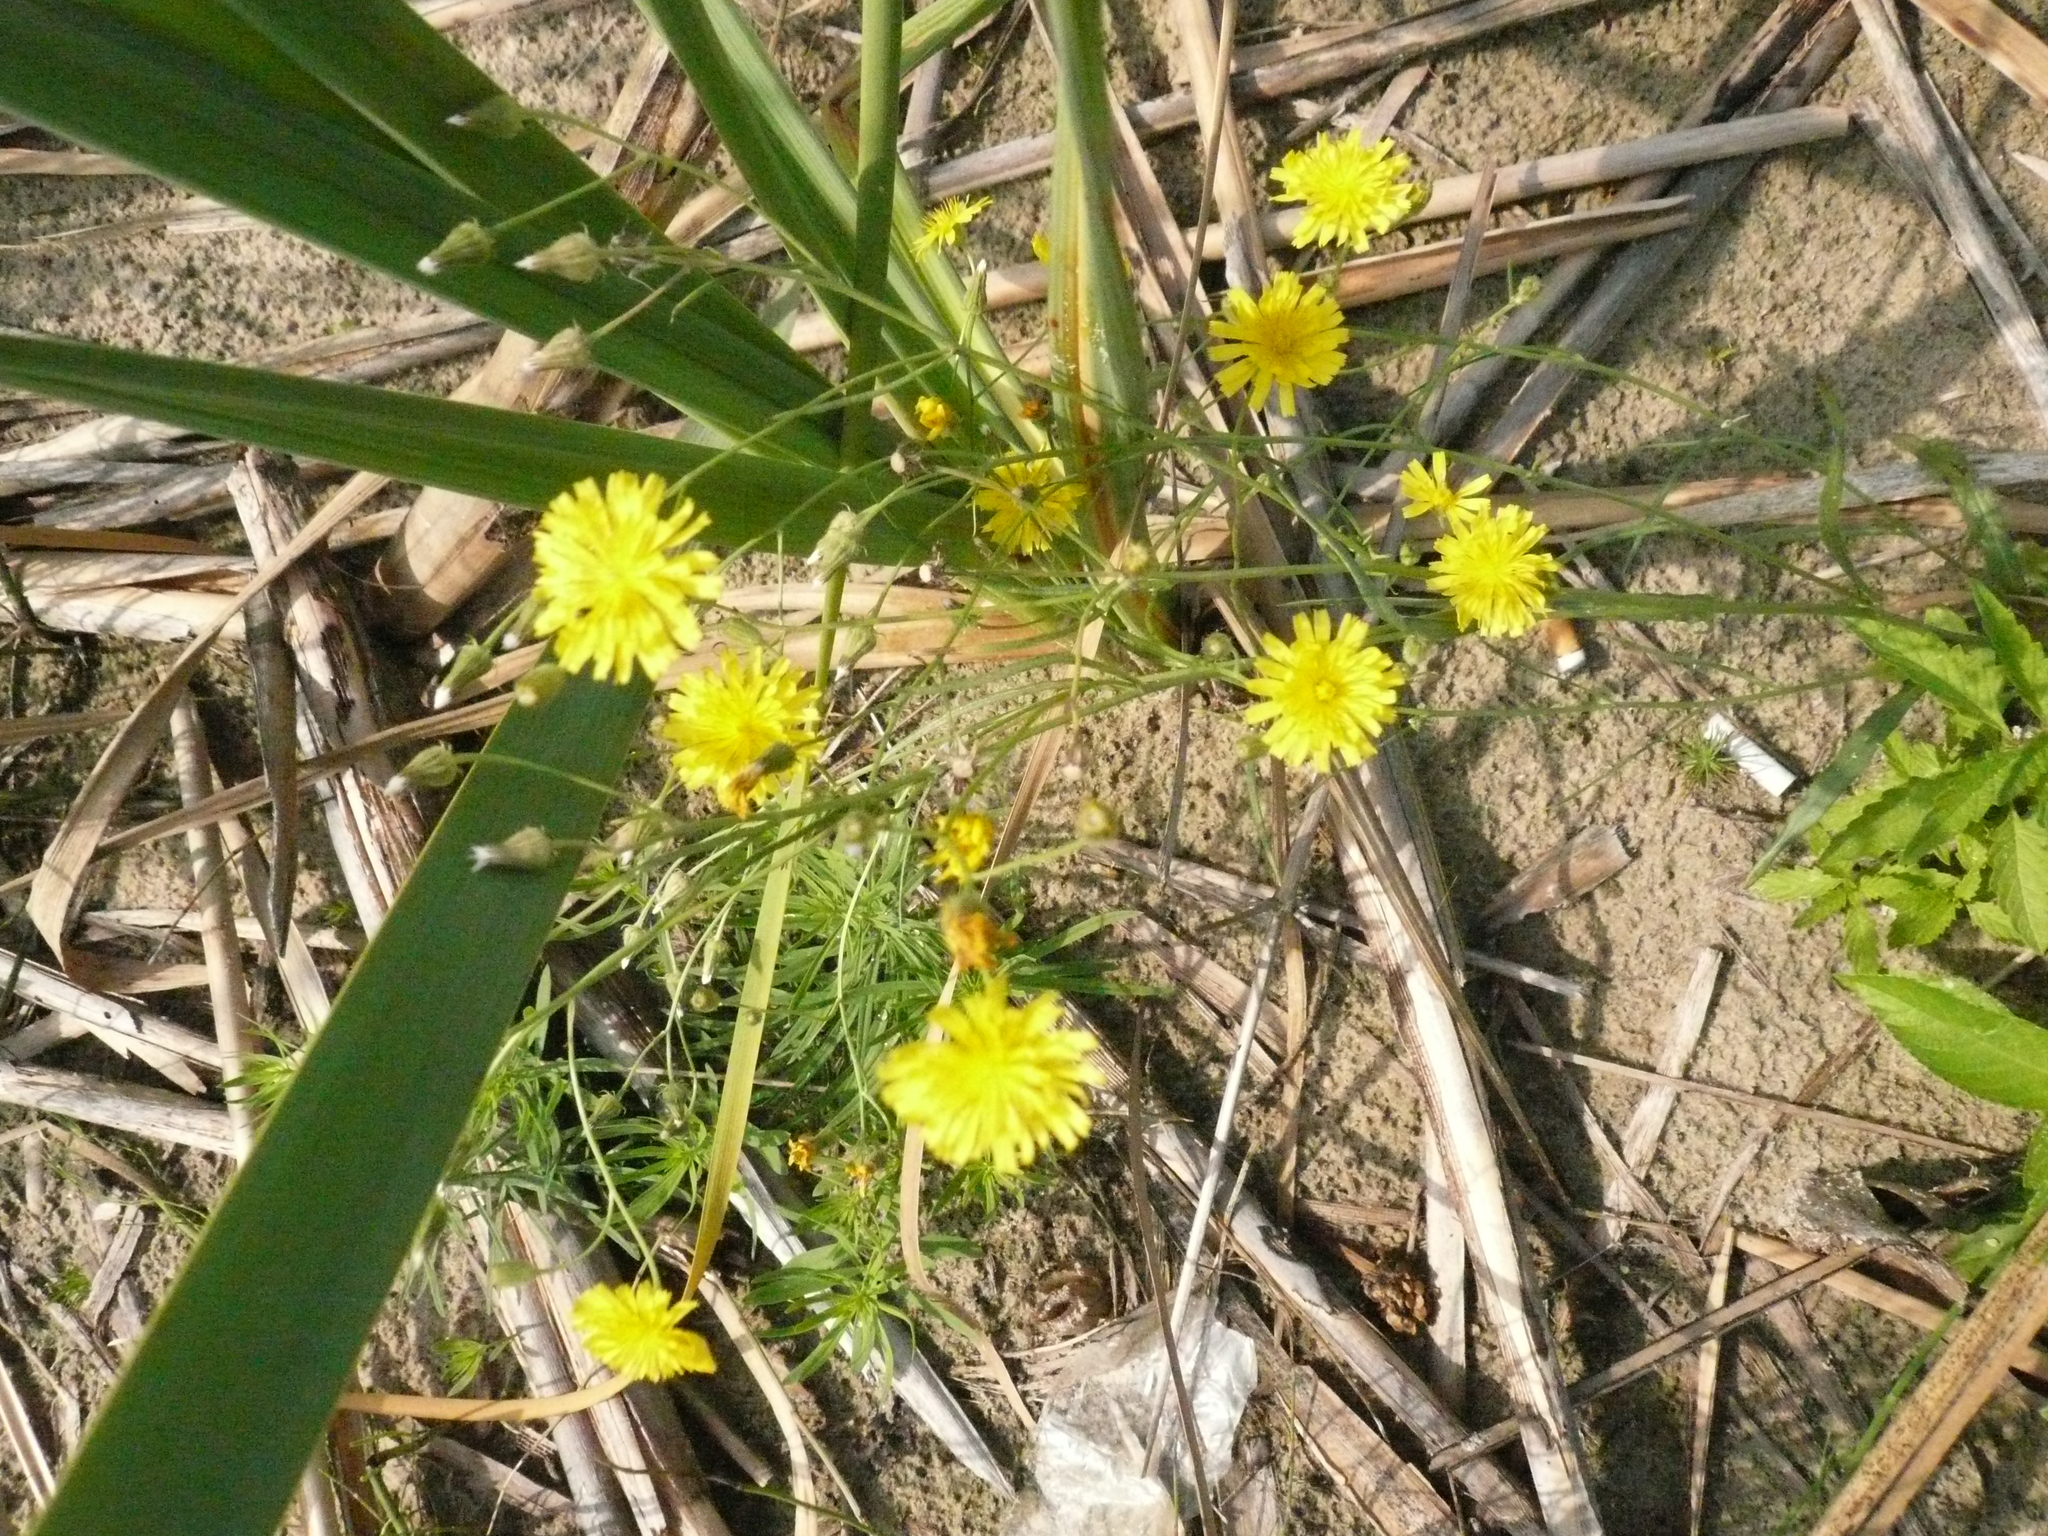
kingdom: Plantae
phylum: Tracheophyta
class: Magnoliopsida
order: Asterales
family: Asteraceae
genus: Crepis
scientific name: Crepis tectorum
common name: Narrow-leaved hawk's-beard
